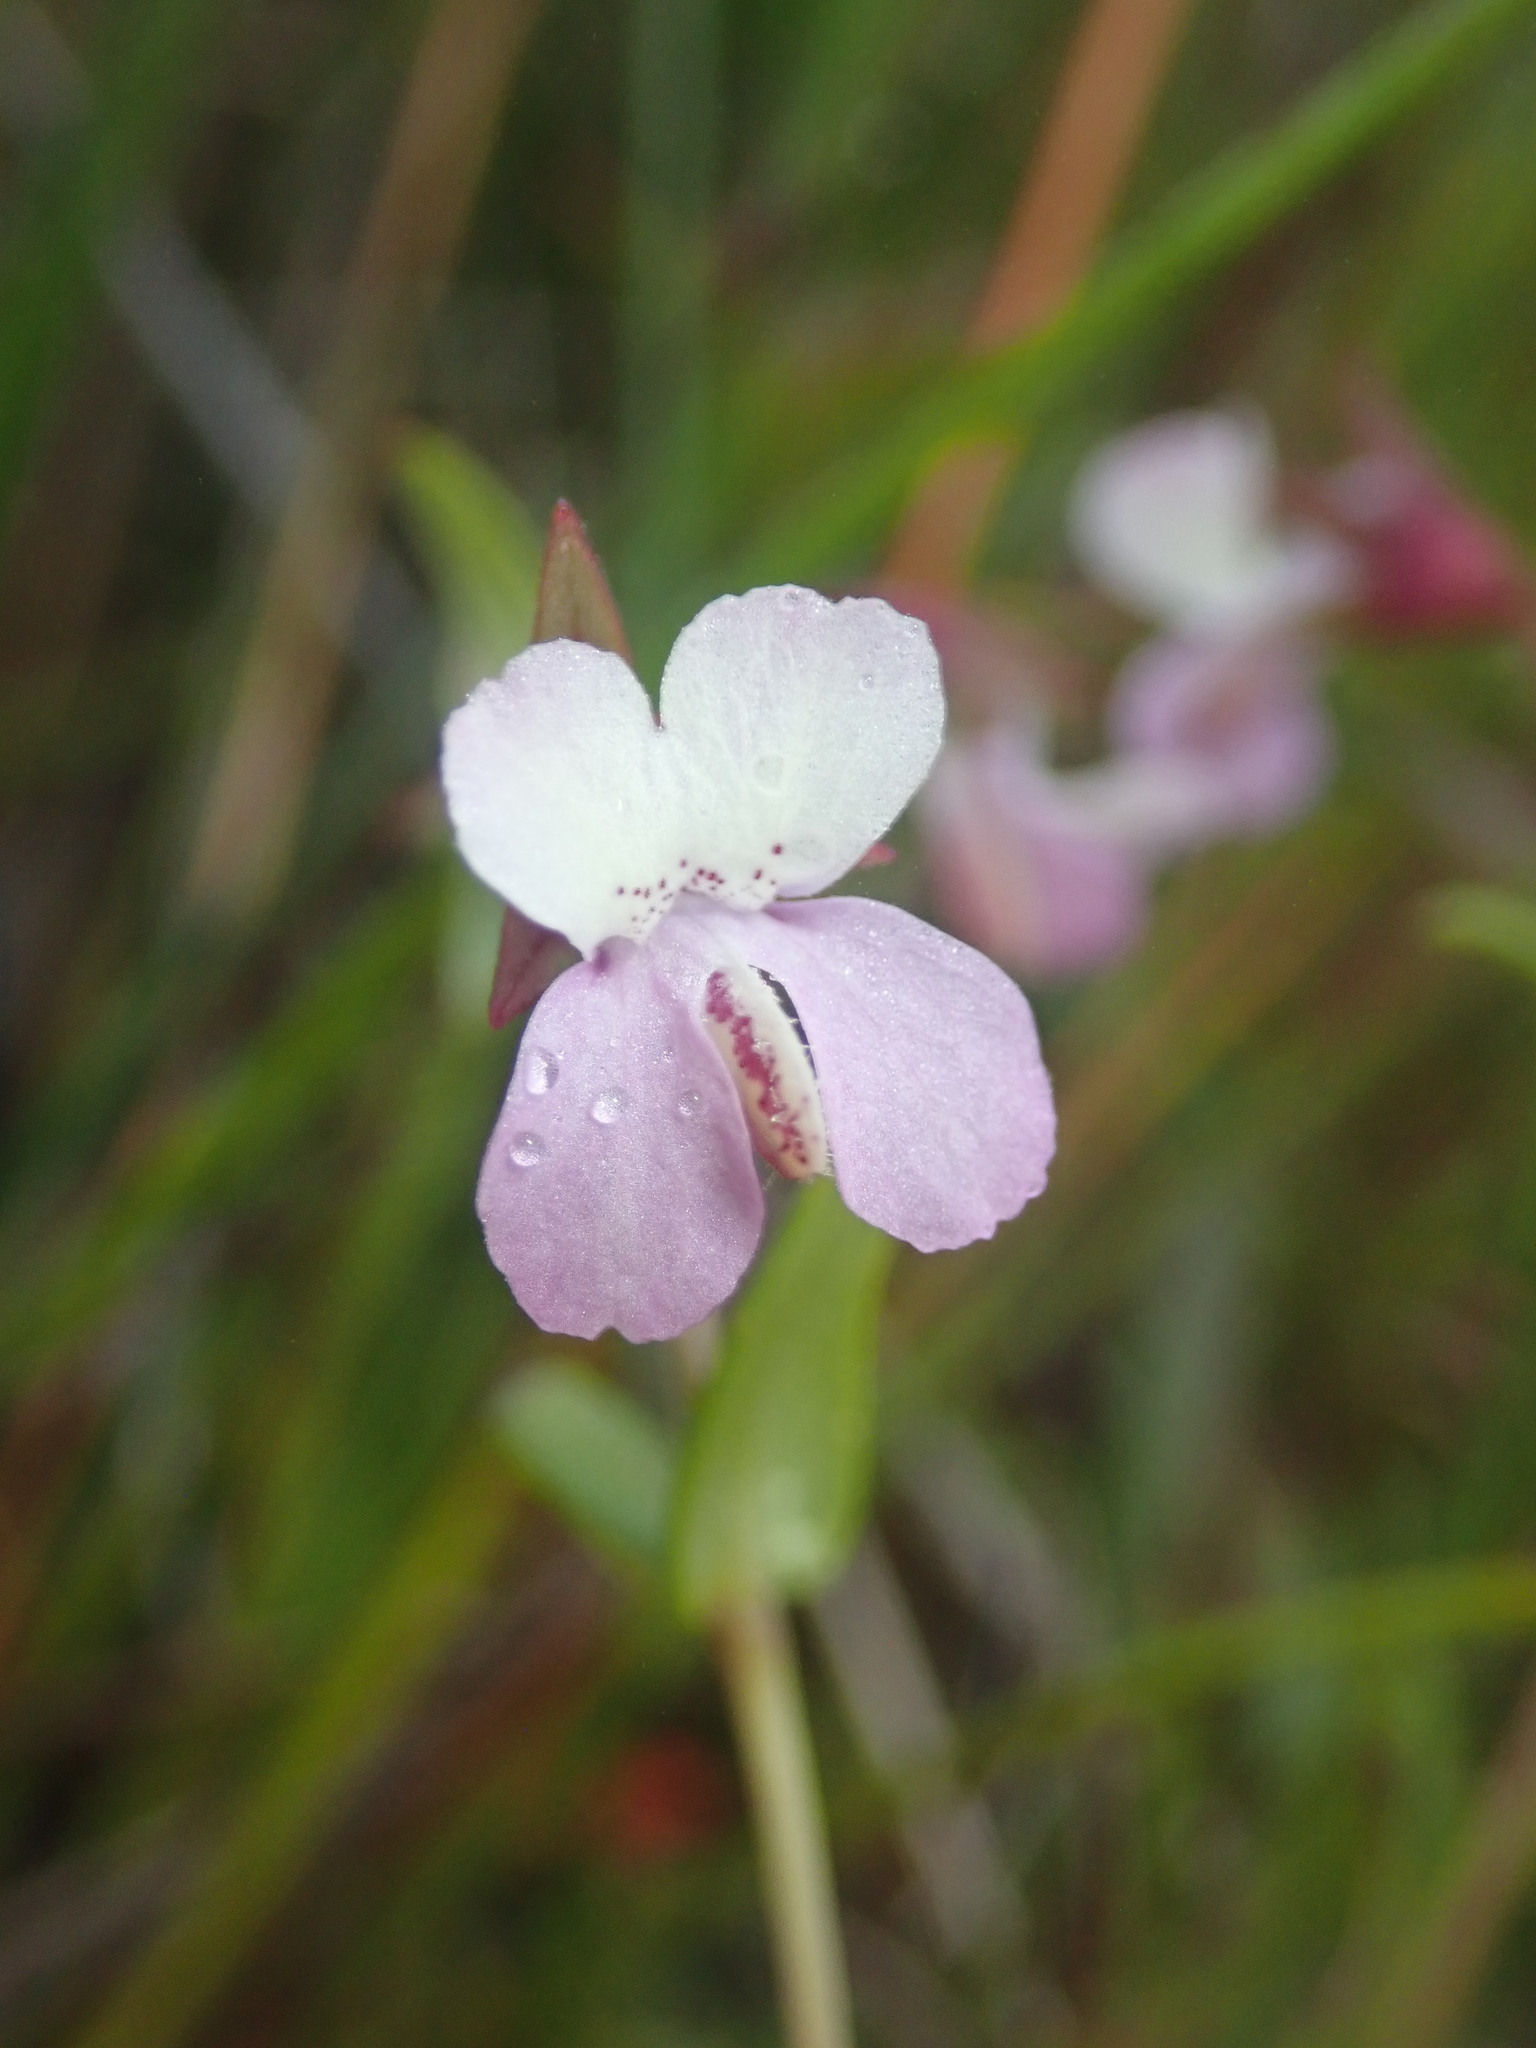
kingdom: Plantae
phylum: Tracheophyta
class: Magnoliopsida
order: Lamiales
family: Plantaginaceae
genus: Collinsia
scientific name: Collinsia sparsiflora
